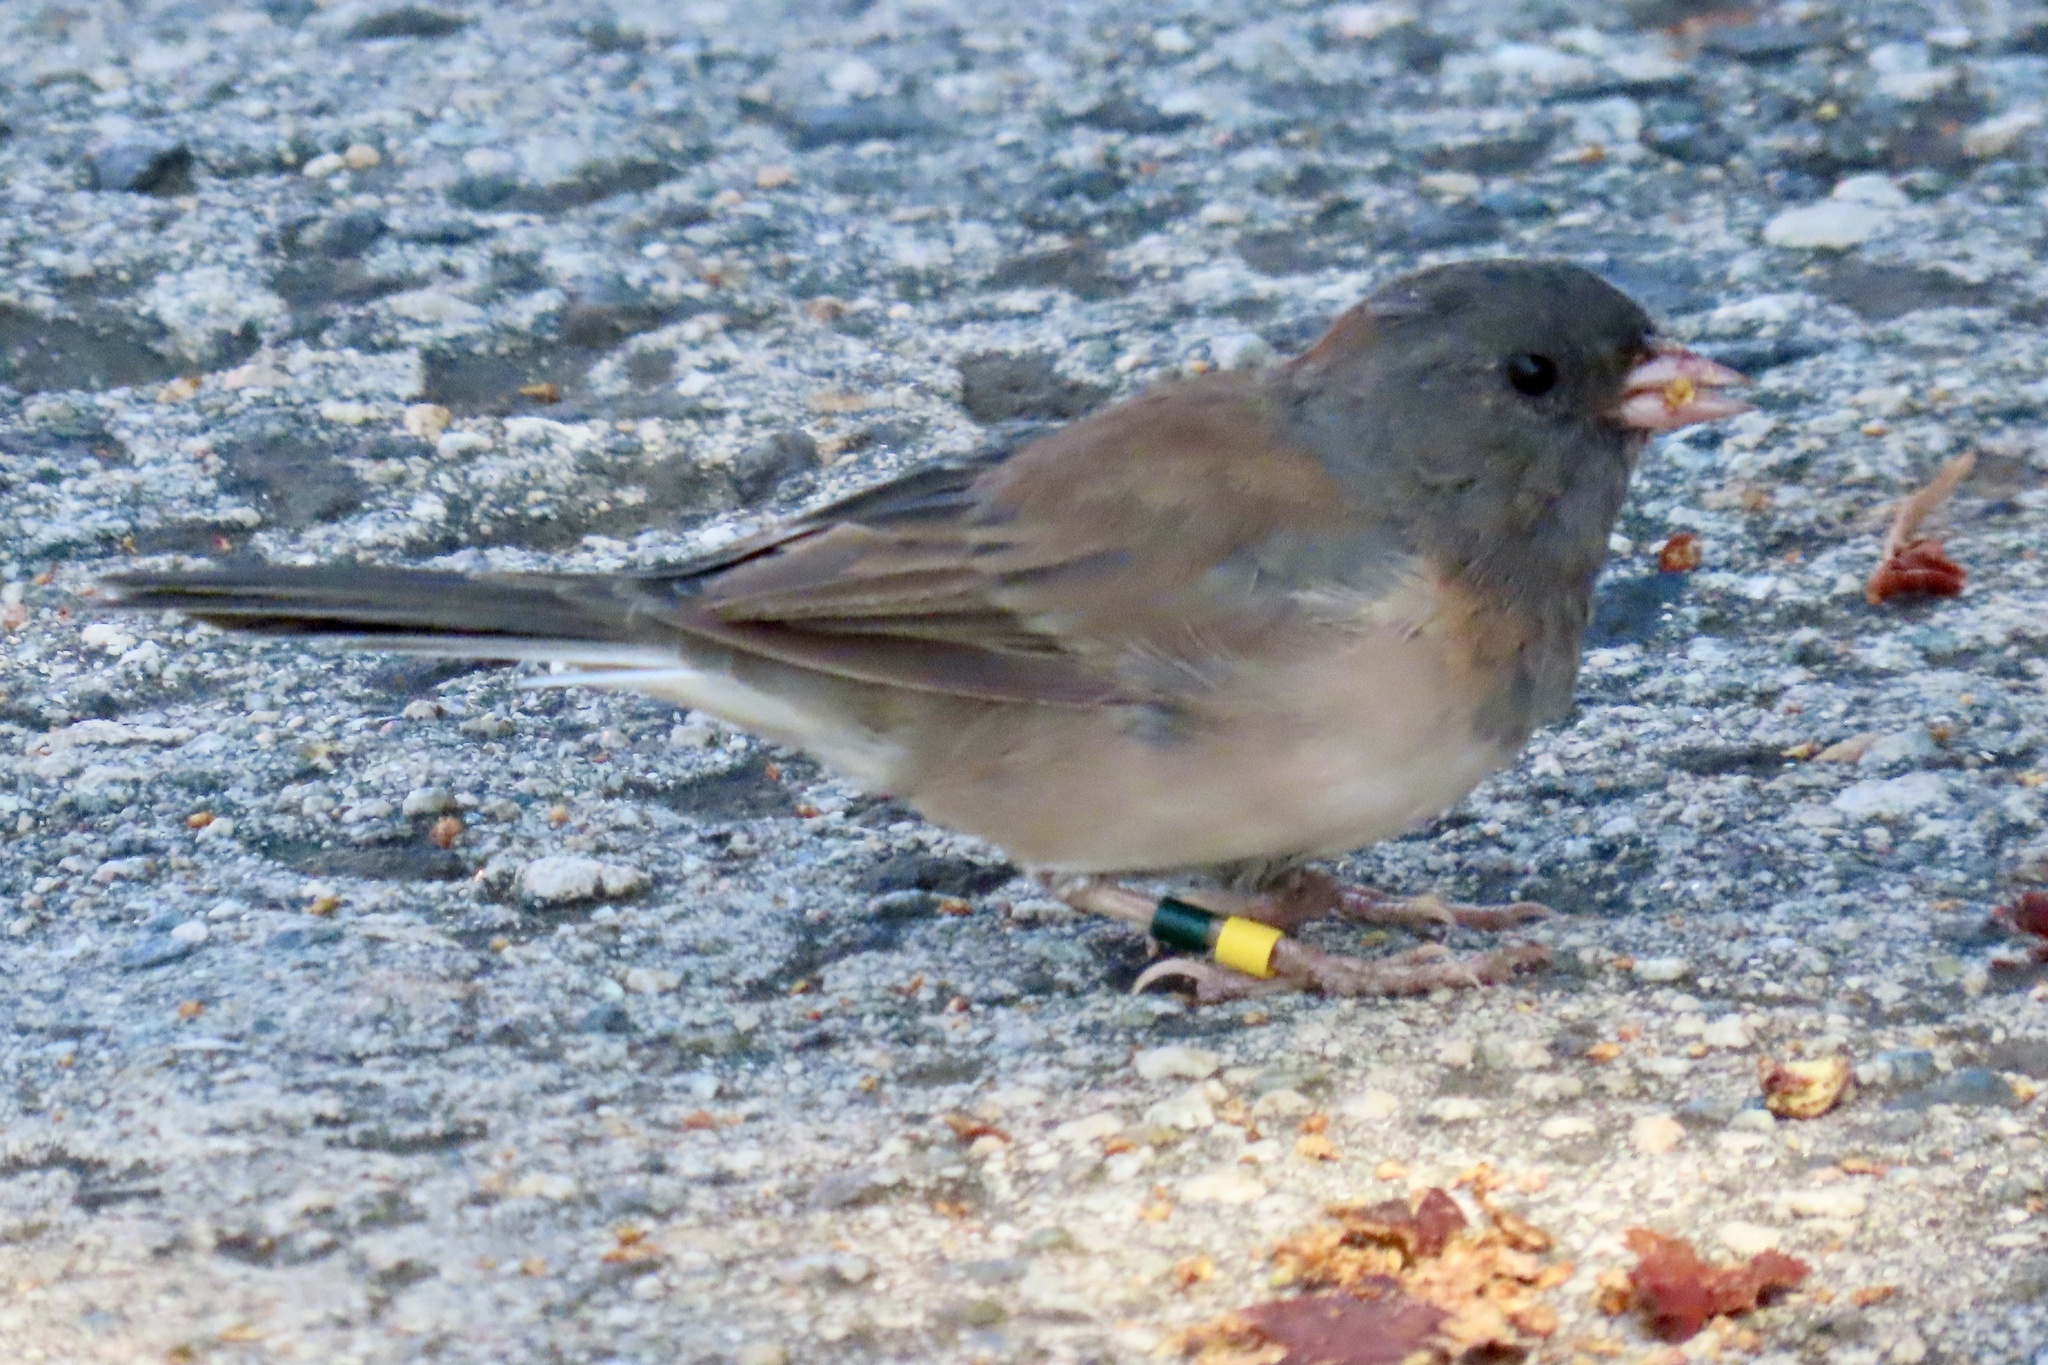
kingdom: Animalia
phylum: Chordata
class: Aves
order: Passeriformes
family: Passerellidae
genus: Junco
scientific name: Junco hyemalis
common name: Dark-eyed junco
